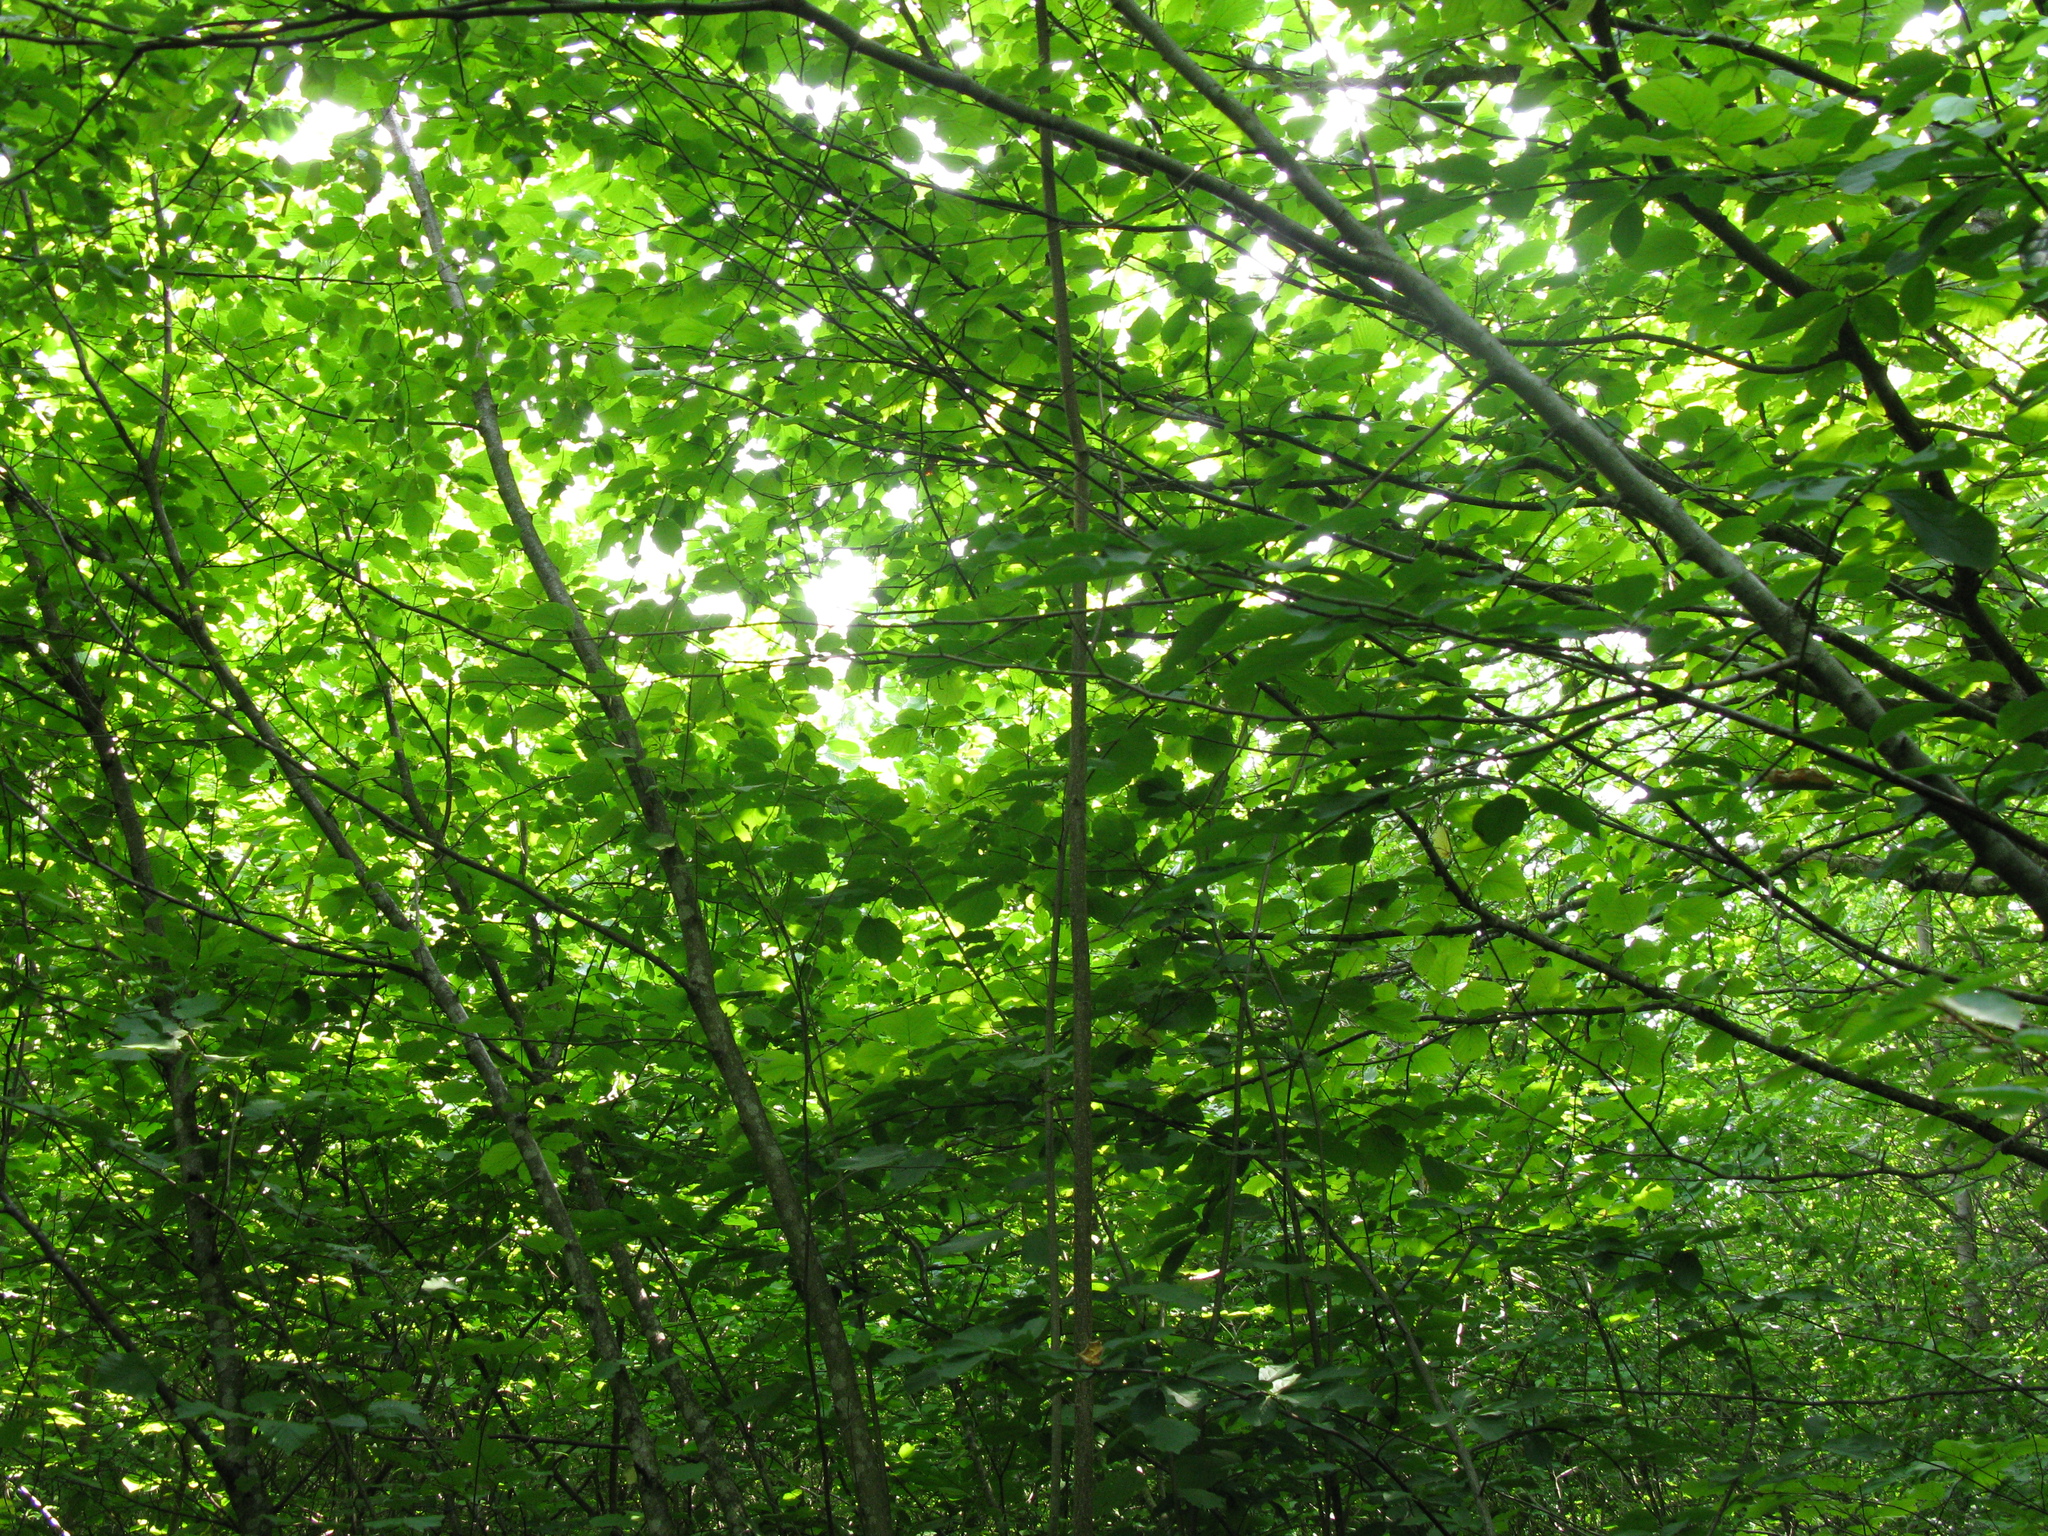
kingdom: Plantae
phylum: Tracheophyta
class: Magnoliopsida
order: Fagales
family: Betulaceae
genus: Corylus
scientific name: Corylus avellana
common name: European hazel
